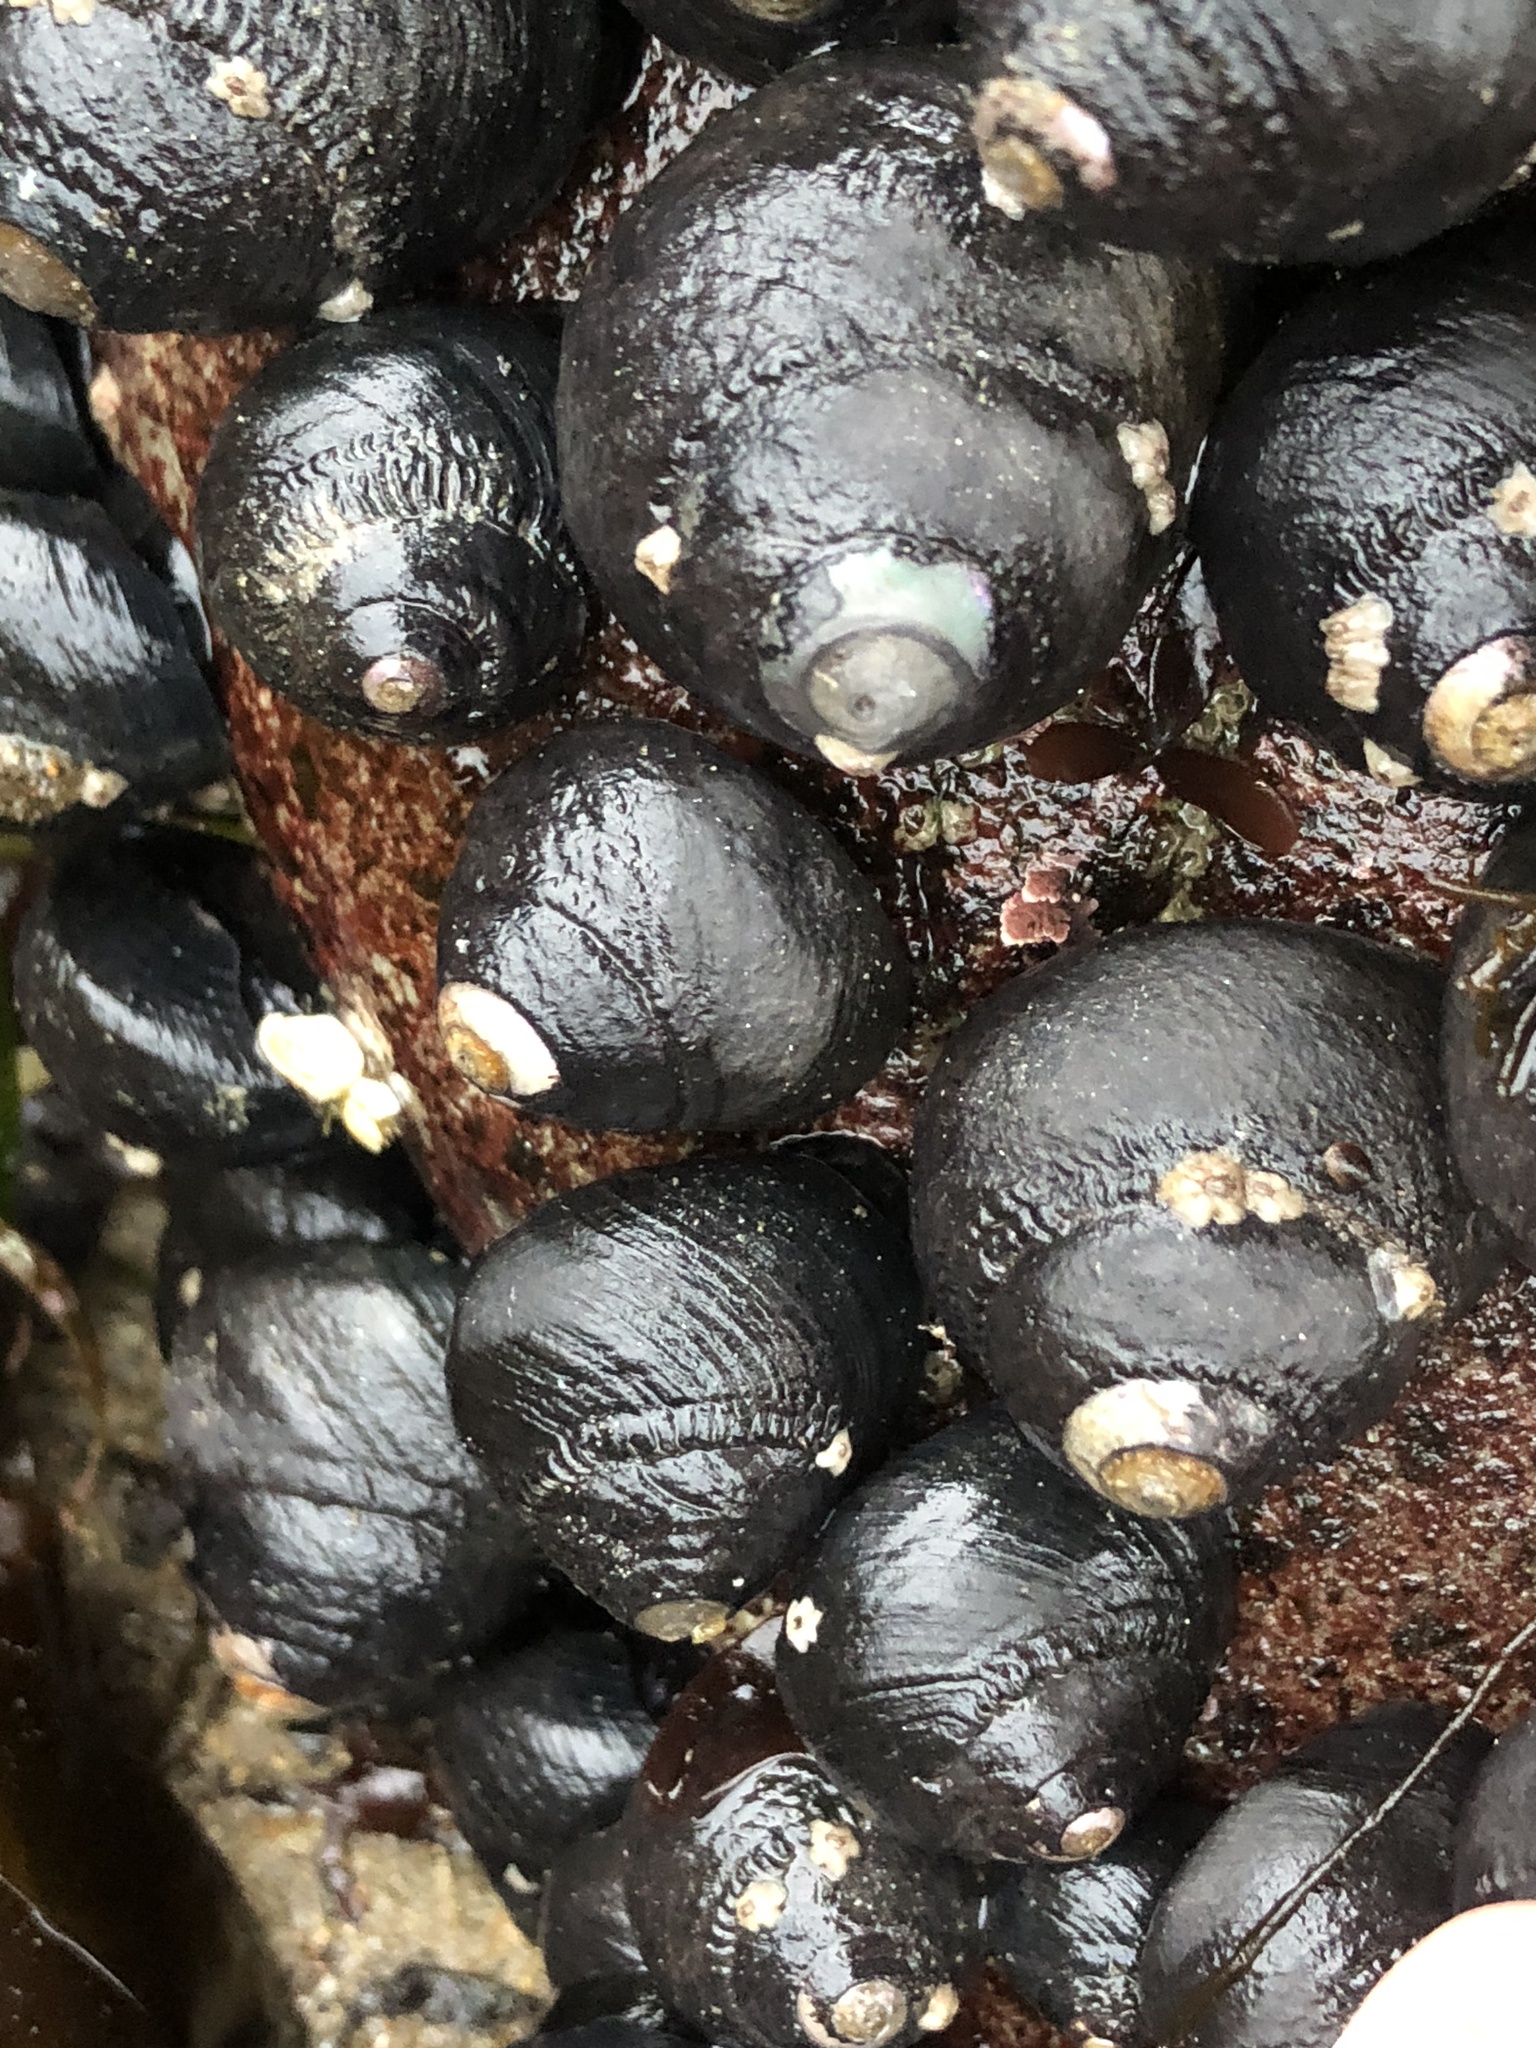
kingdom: Animalia
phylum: Mollusca
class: Gastropoda
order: Trochida
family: Tegulidae
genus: Tegula
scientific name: Tegula funebralis
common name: Black tegula
